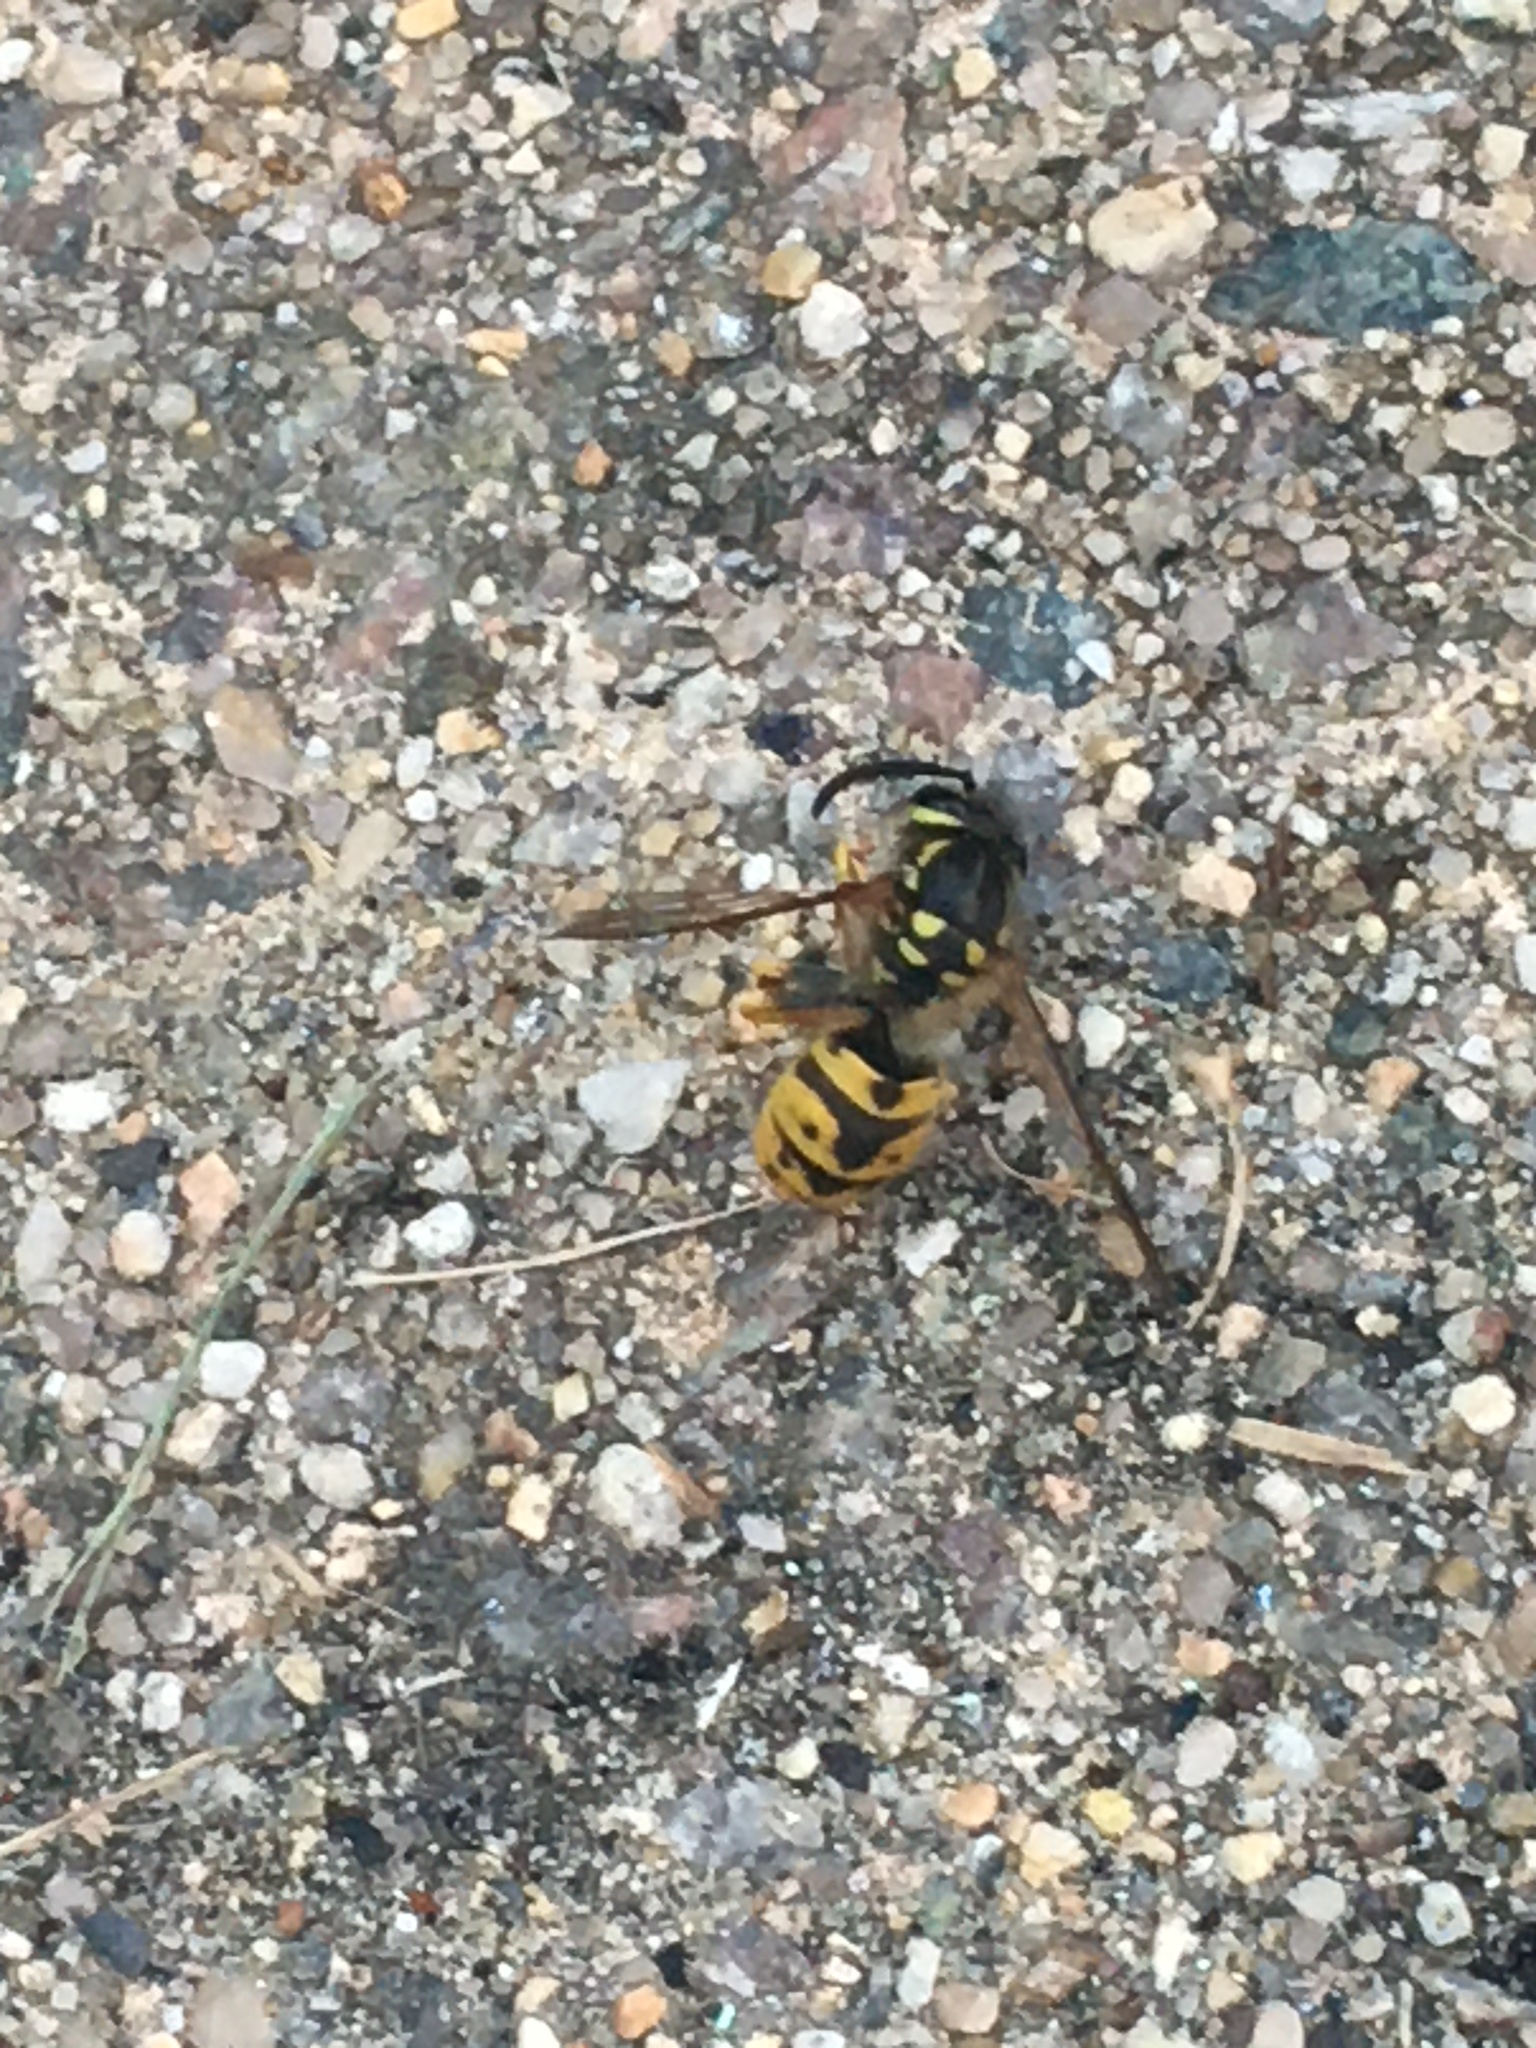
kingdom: Animalia
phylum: Arthropoda
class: Insecta
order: Hymenoptera
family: Vespidae
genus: Vespula
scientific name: Vespula germanica
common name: German wasp
